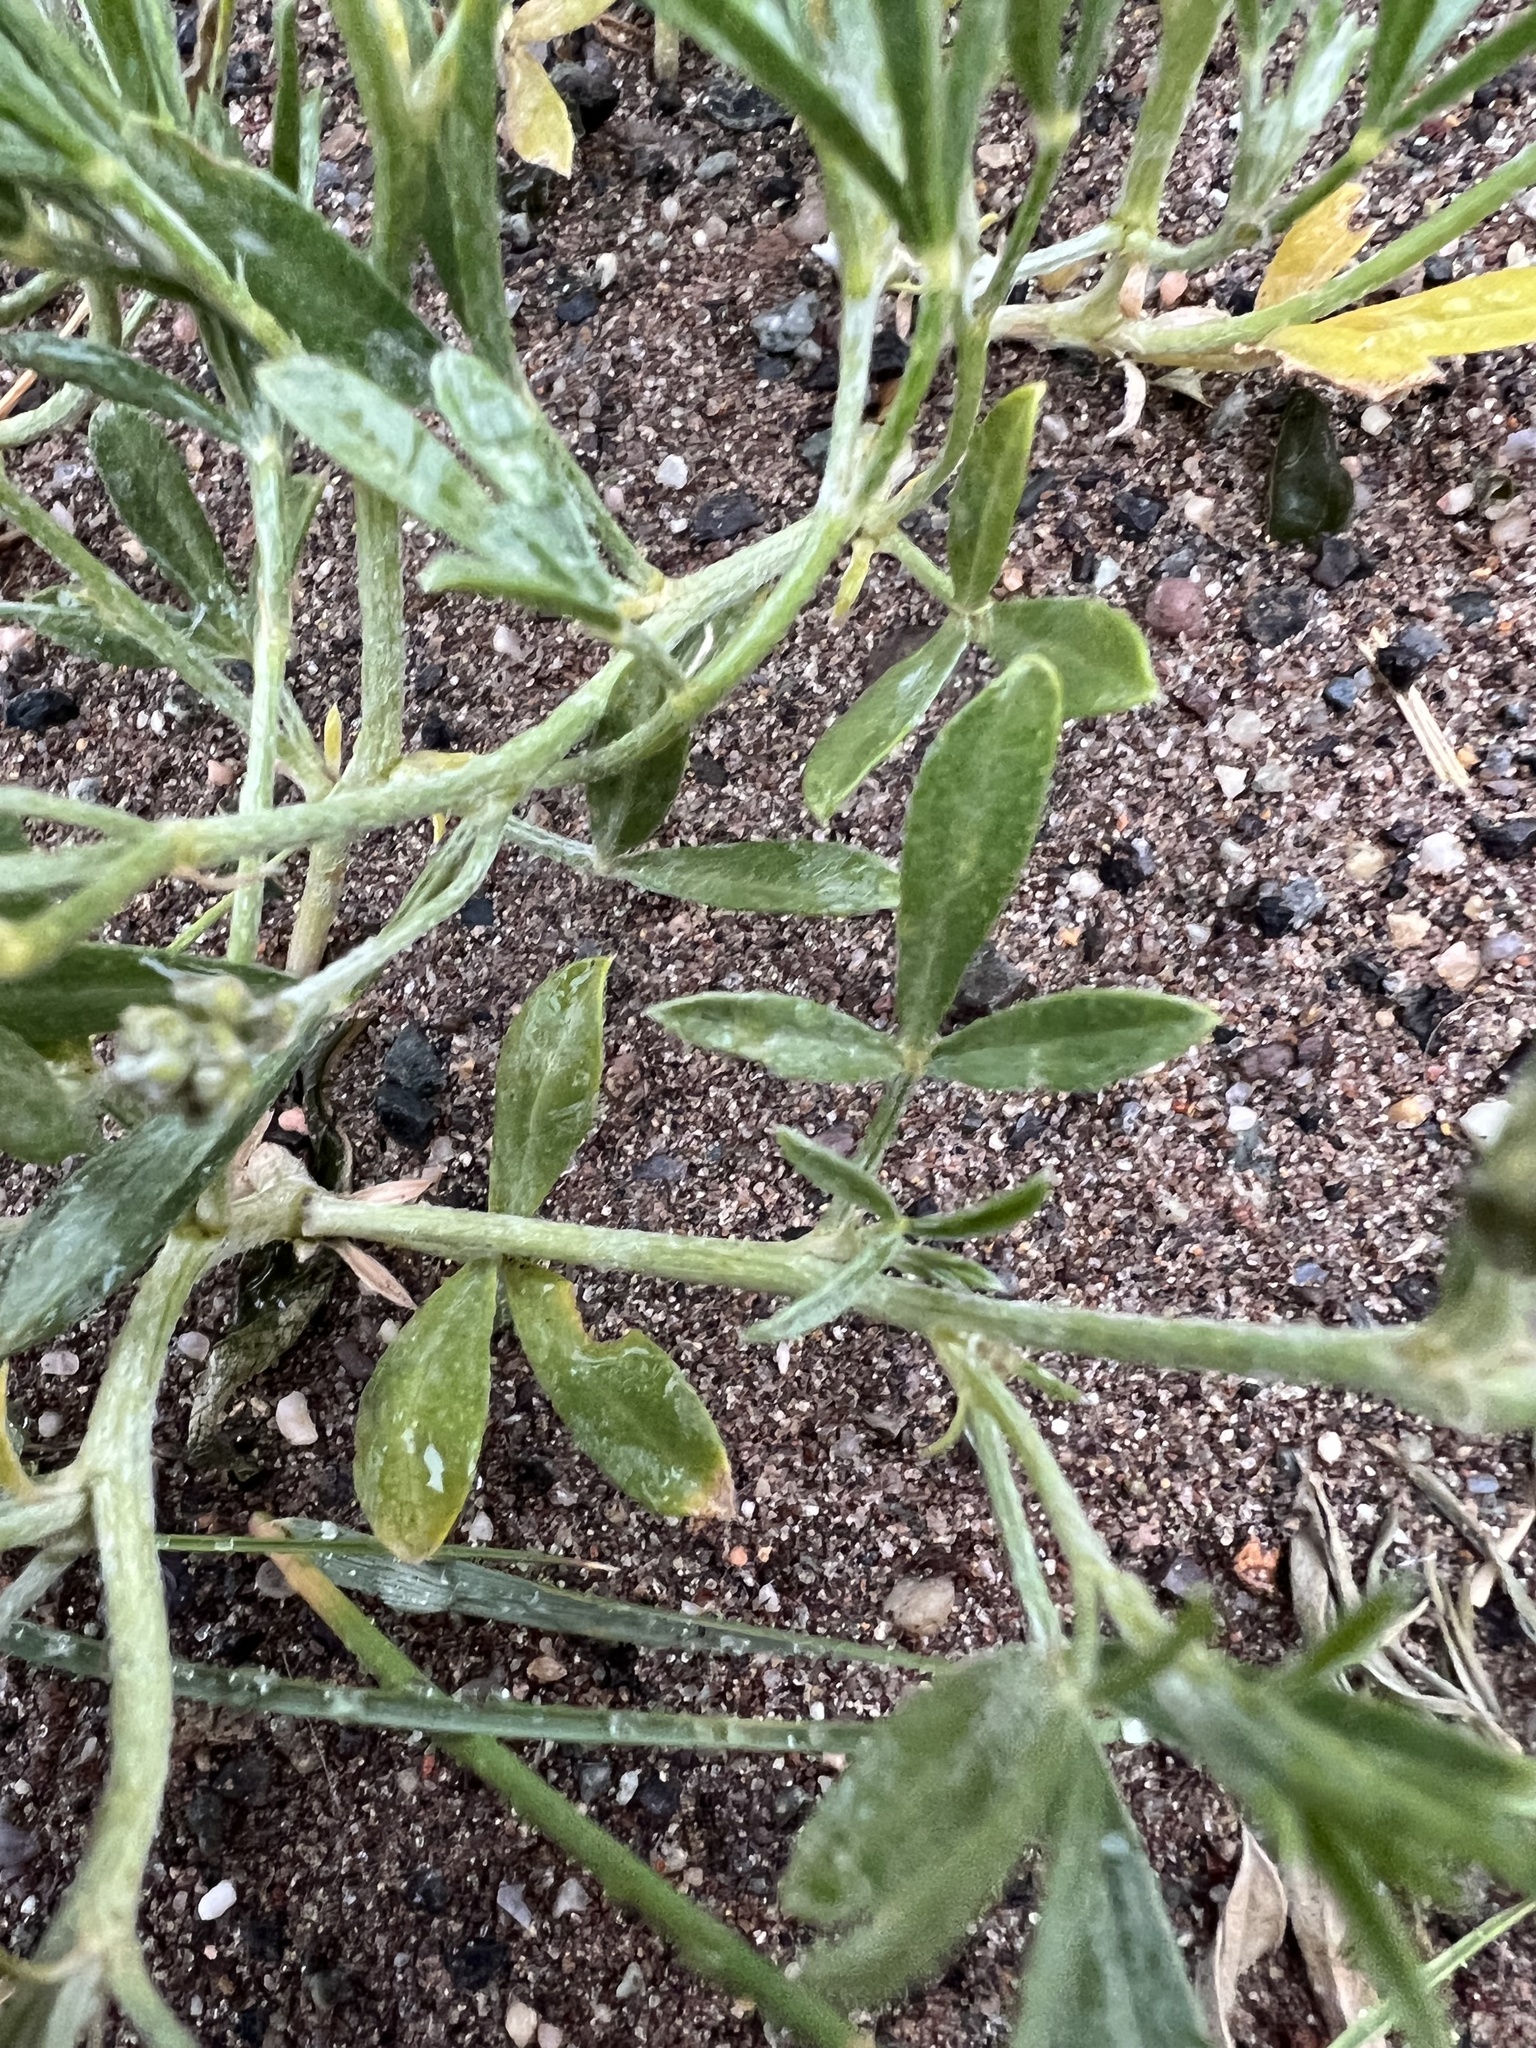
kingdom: Plantae
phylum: Tracheophyta
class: Magnoliopsida
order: Fabales
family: Fabaceae
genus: Ladeania
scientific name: Ladeania lanceolata
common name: Dune scurf-pea
